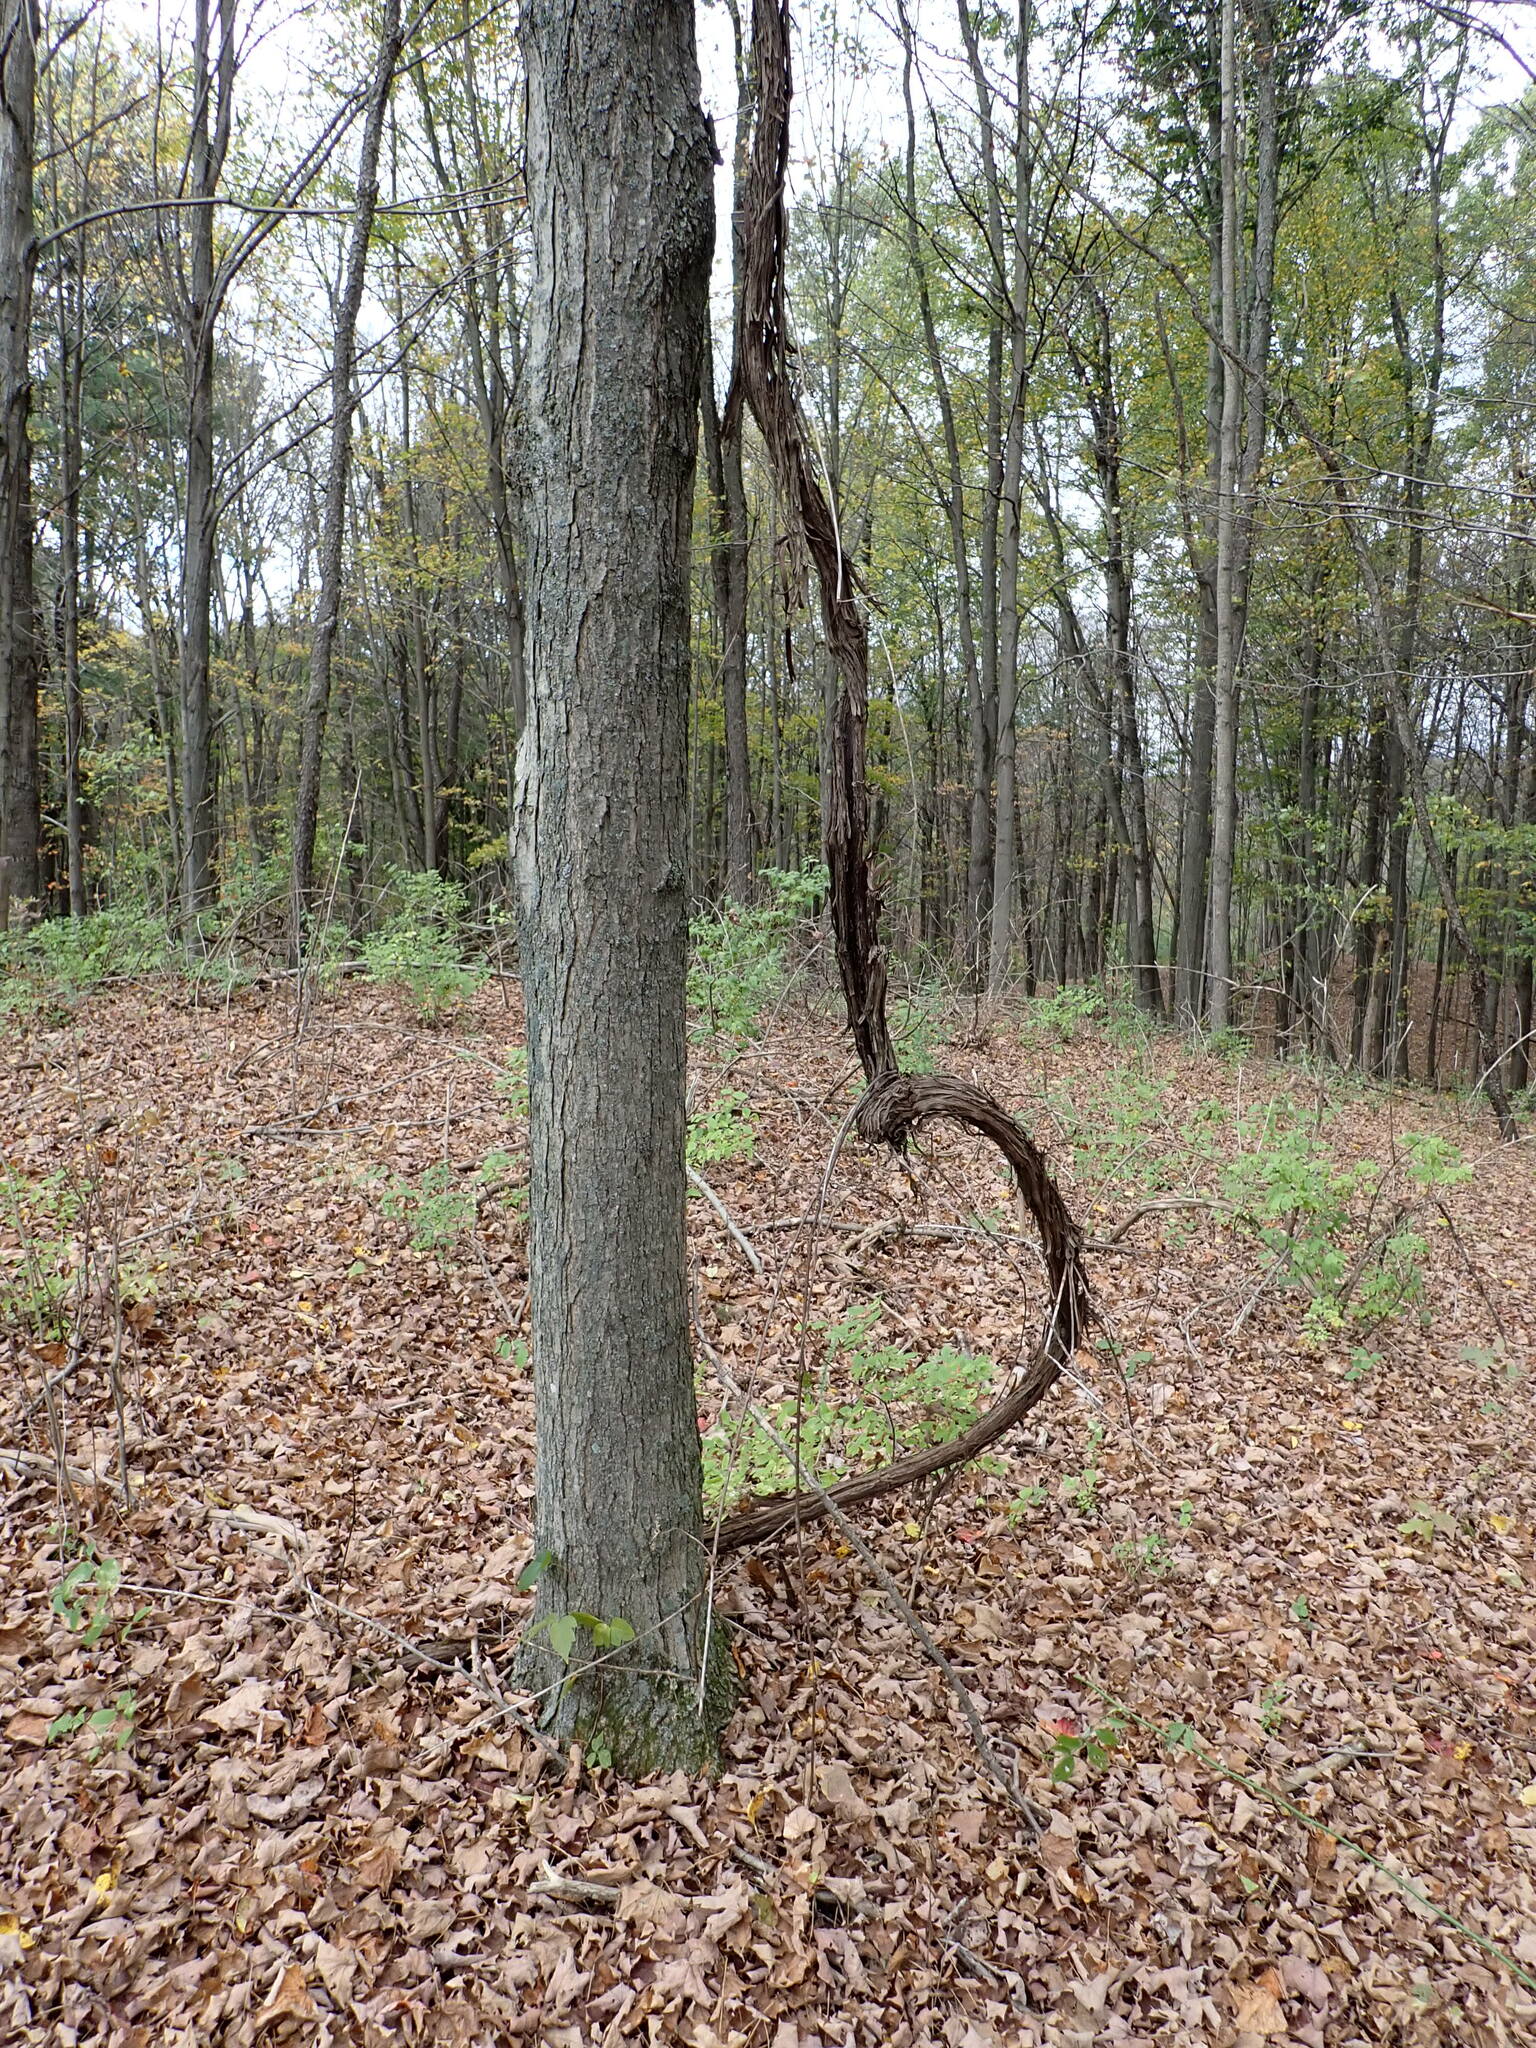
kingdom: Plantae
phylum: Tracheophyta
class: Magnoliopsida
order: Vitales
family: Vitaceae
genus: Vitis
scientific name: Vitis
